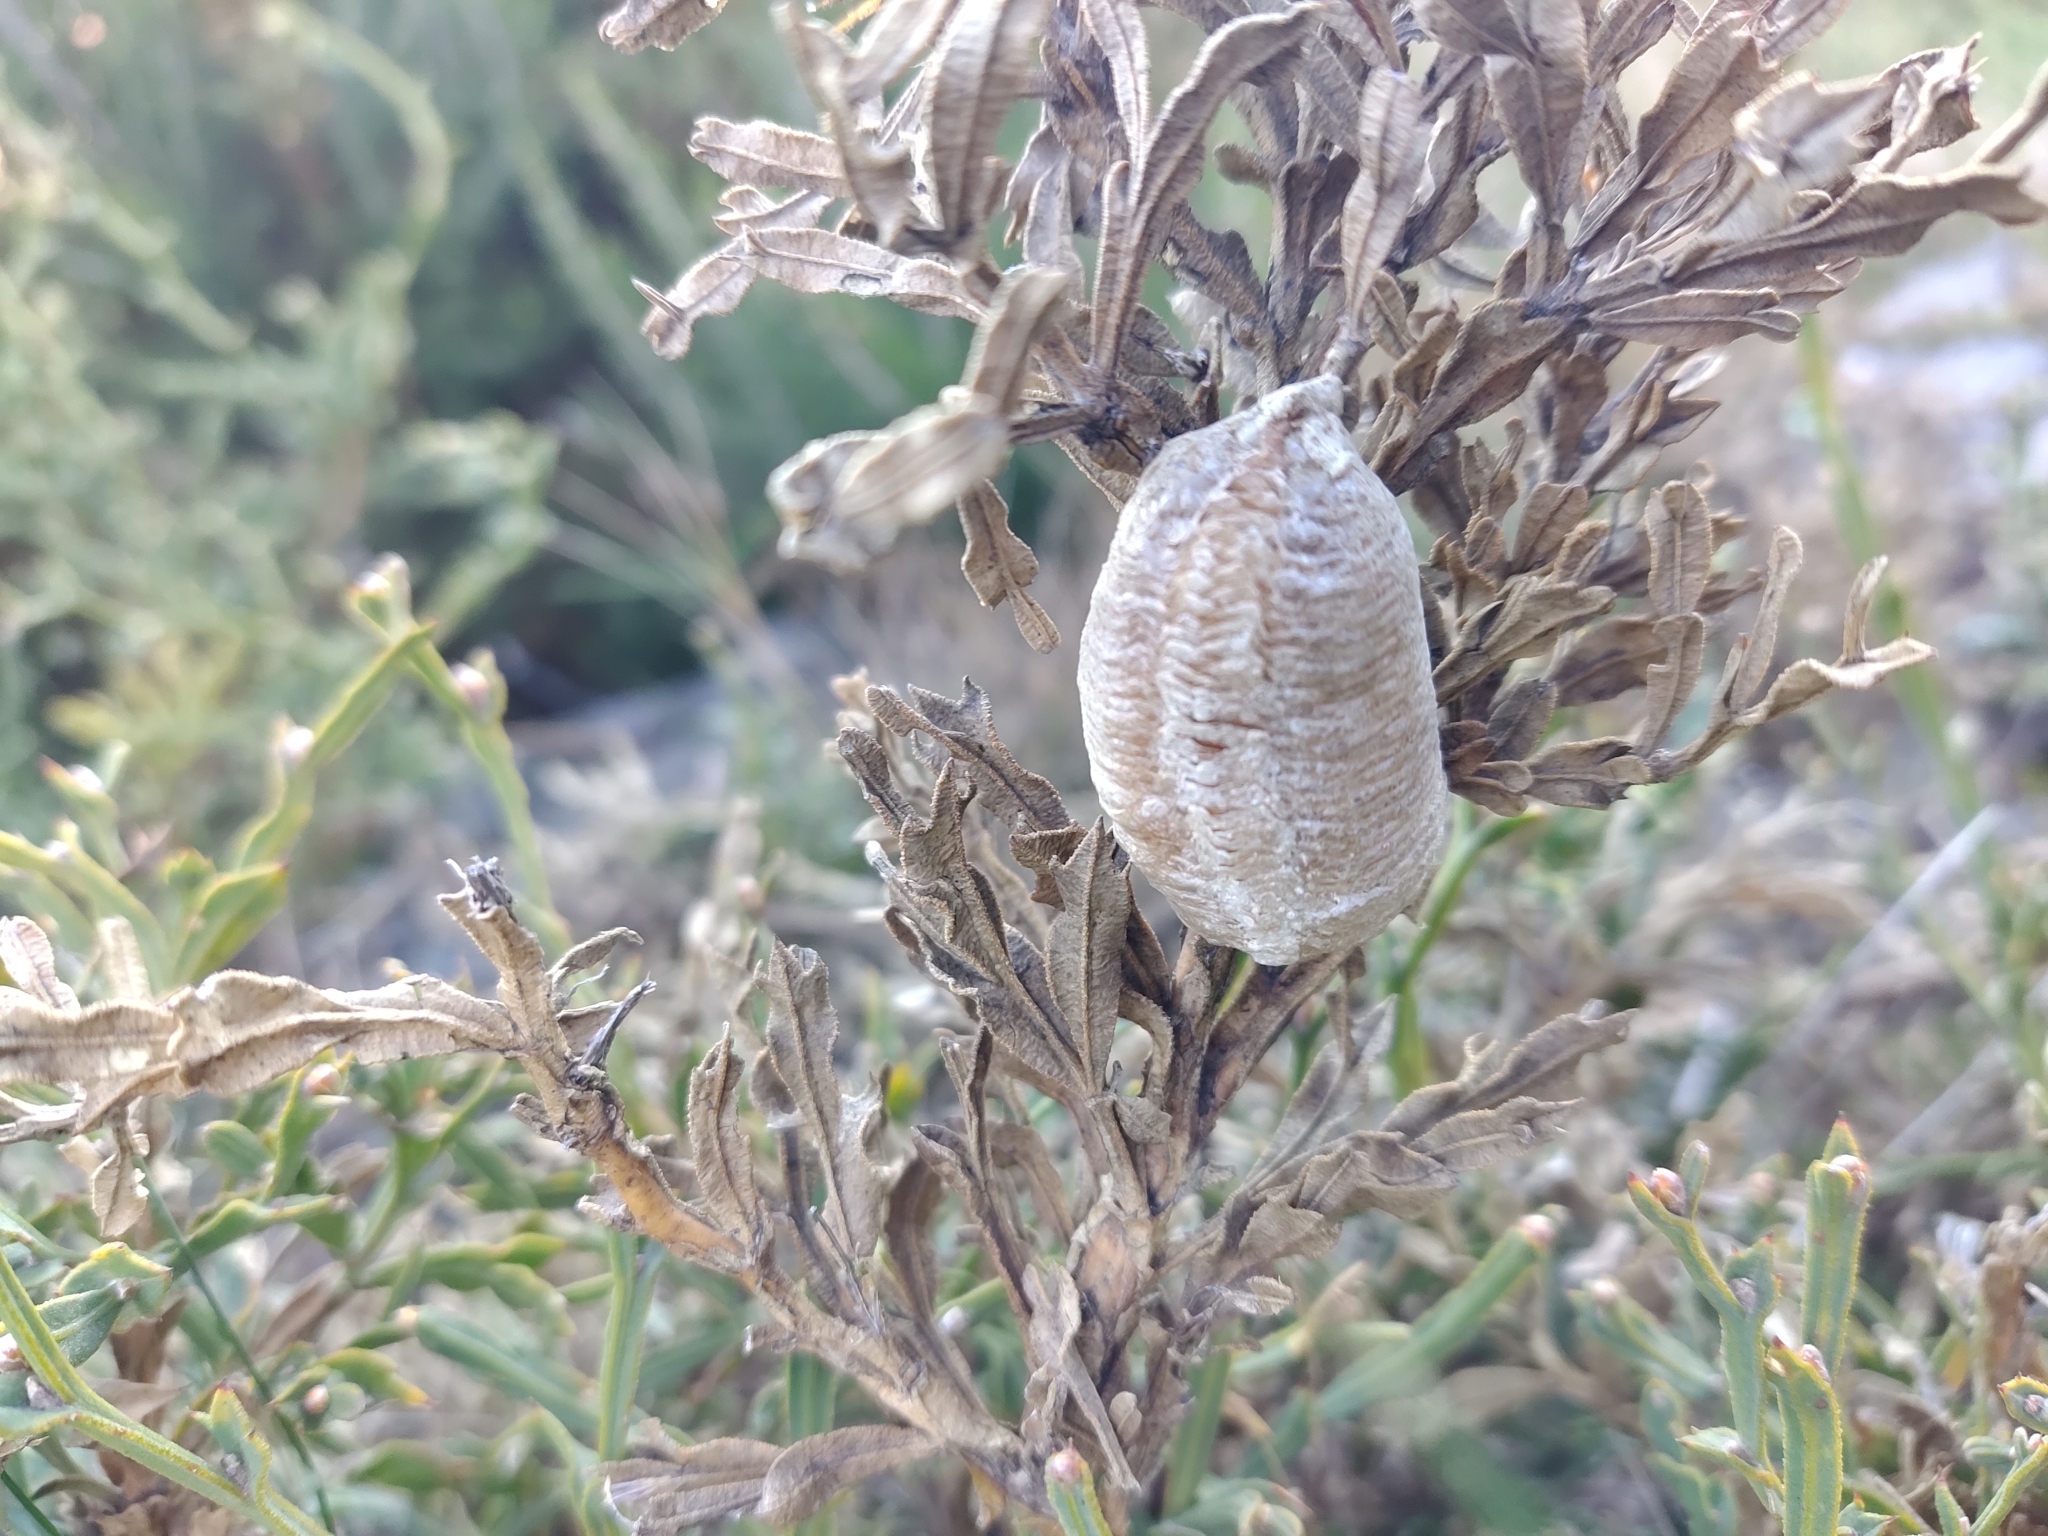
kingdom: Animalia
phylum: Arthropoda
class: Insecta
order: Mantodea
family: Mantidae
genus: Mantis
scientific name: Mantis religiosa
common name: Praying mantis
